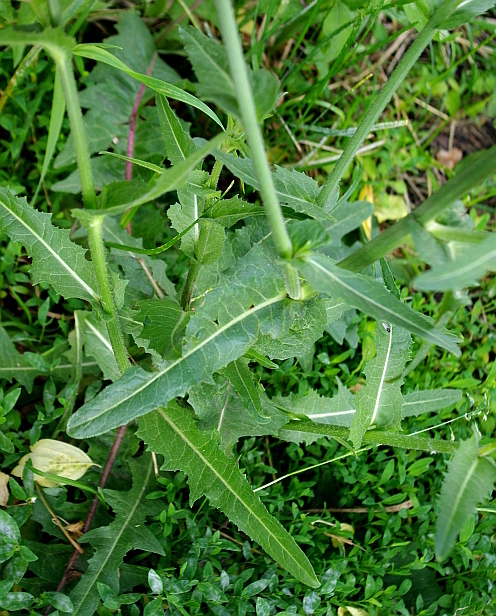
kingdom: Plantae
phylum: Tracheophyta
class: Magnoliopsida
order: Asterales
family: Asteraceae
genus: Cichorium
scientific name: Cichorium intybus
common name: Chicory
